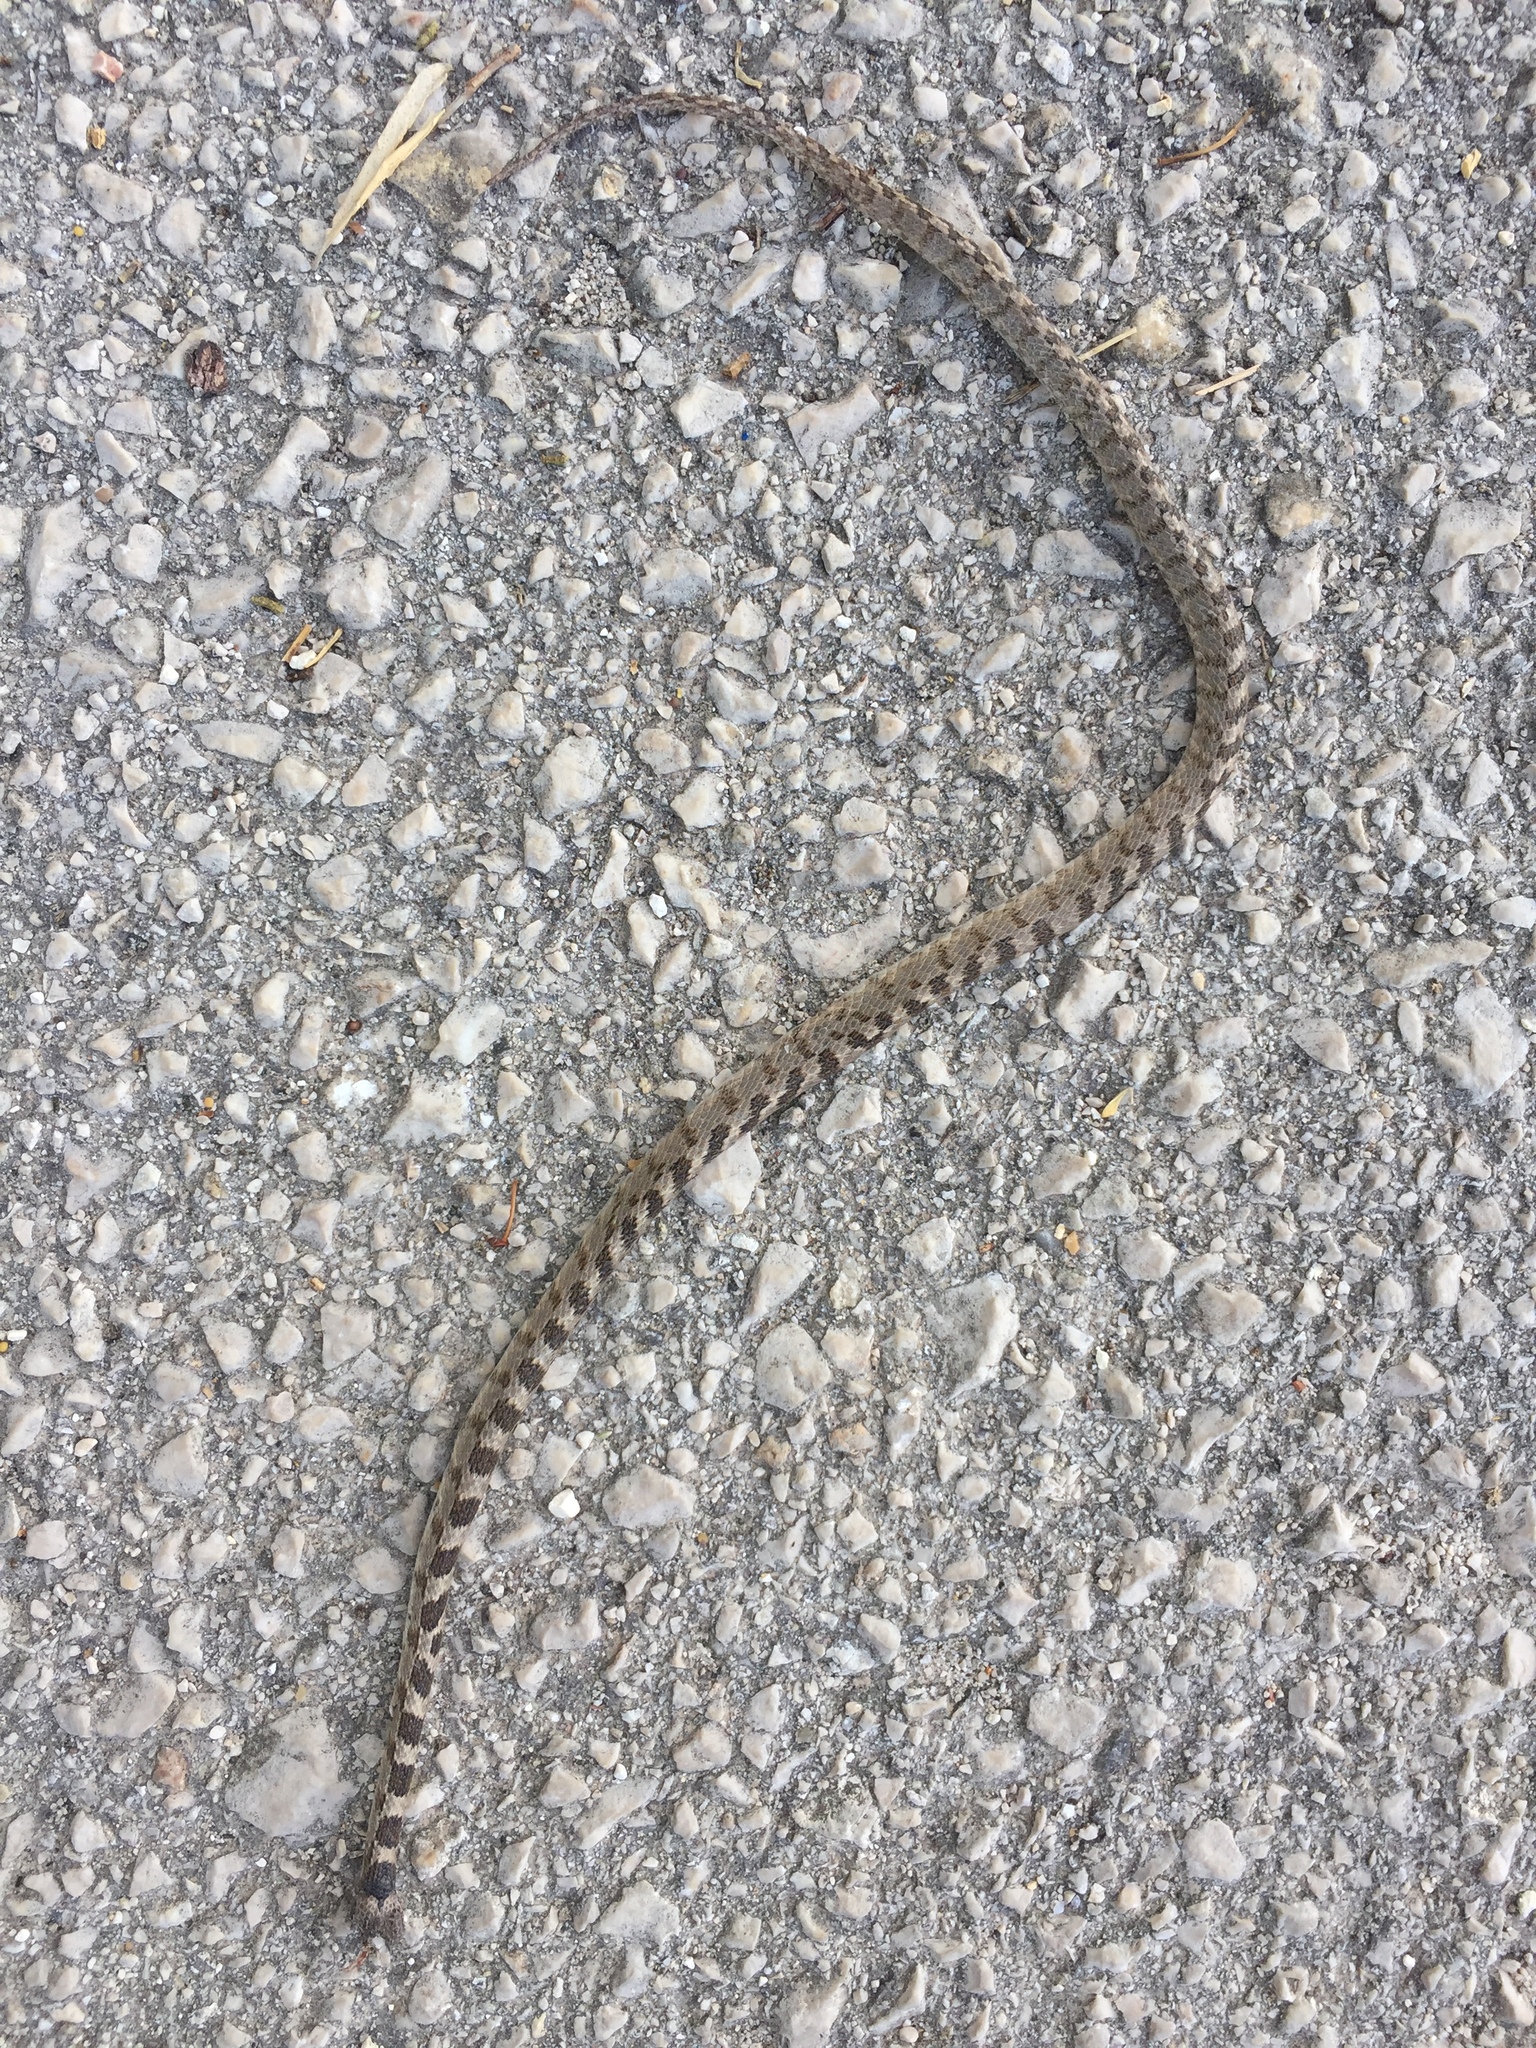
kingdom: Animalia
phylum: Chordata
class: Squamata
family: Colubridae
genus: Telescopus
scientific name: Telescopus fallax
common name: Cat snake
